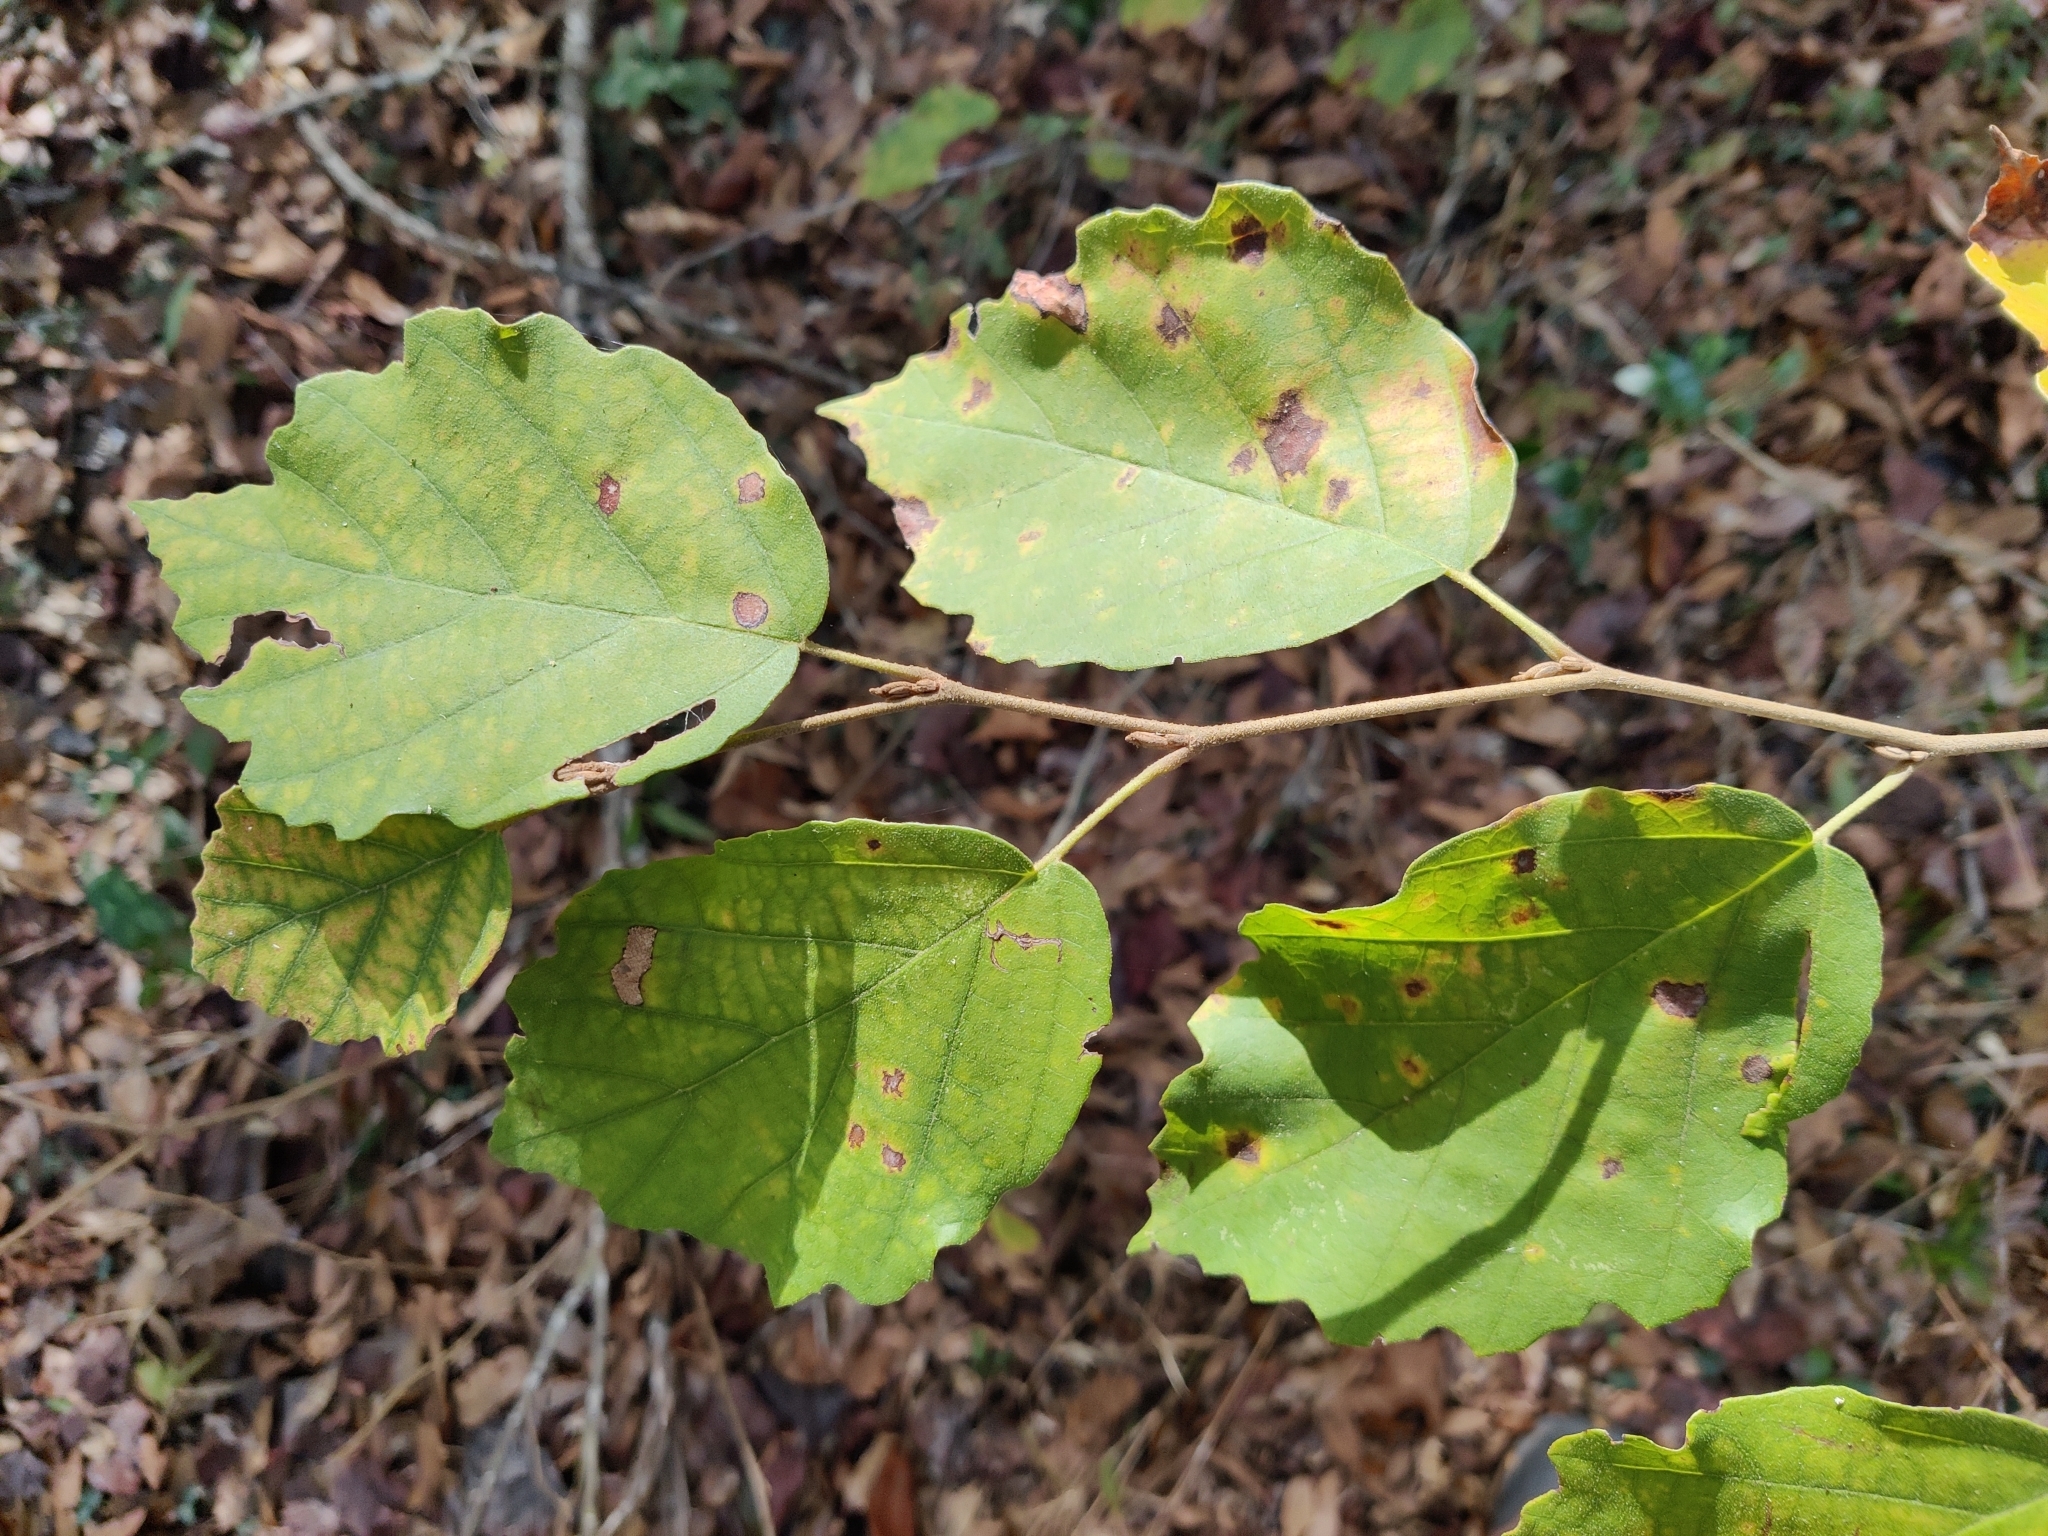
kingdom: Plantae
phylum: Tracheophyta
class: Magnoliopsida
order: Saxifragales
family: Hamamelidaceae
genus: Hamamelis
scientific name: Hamamelis virginiana
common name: Witch-hazel
